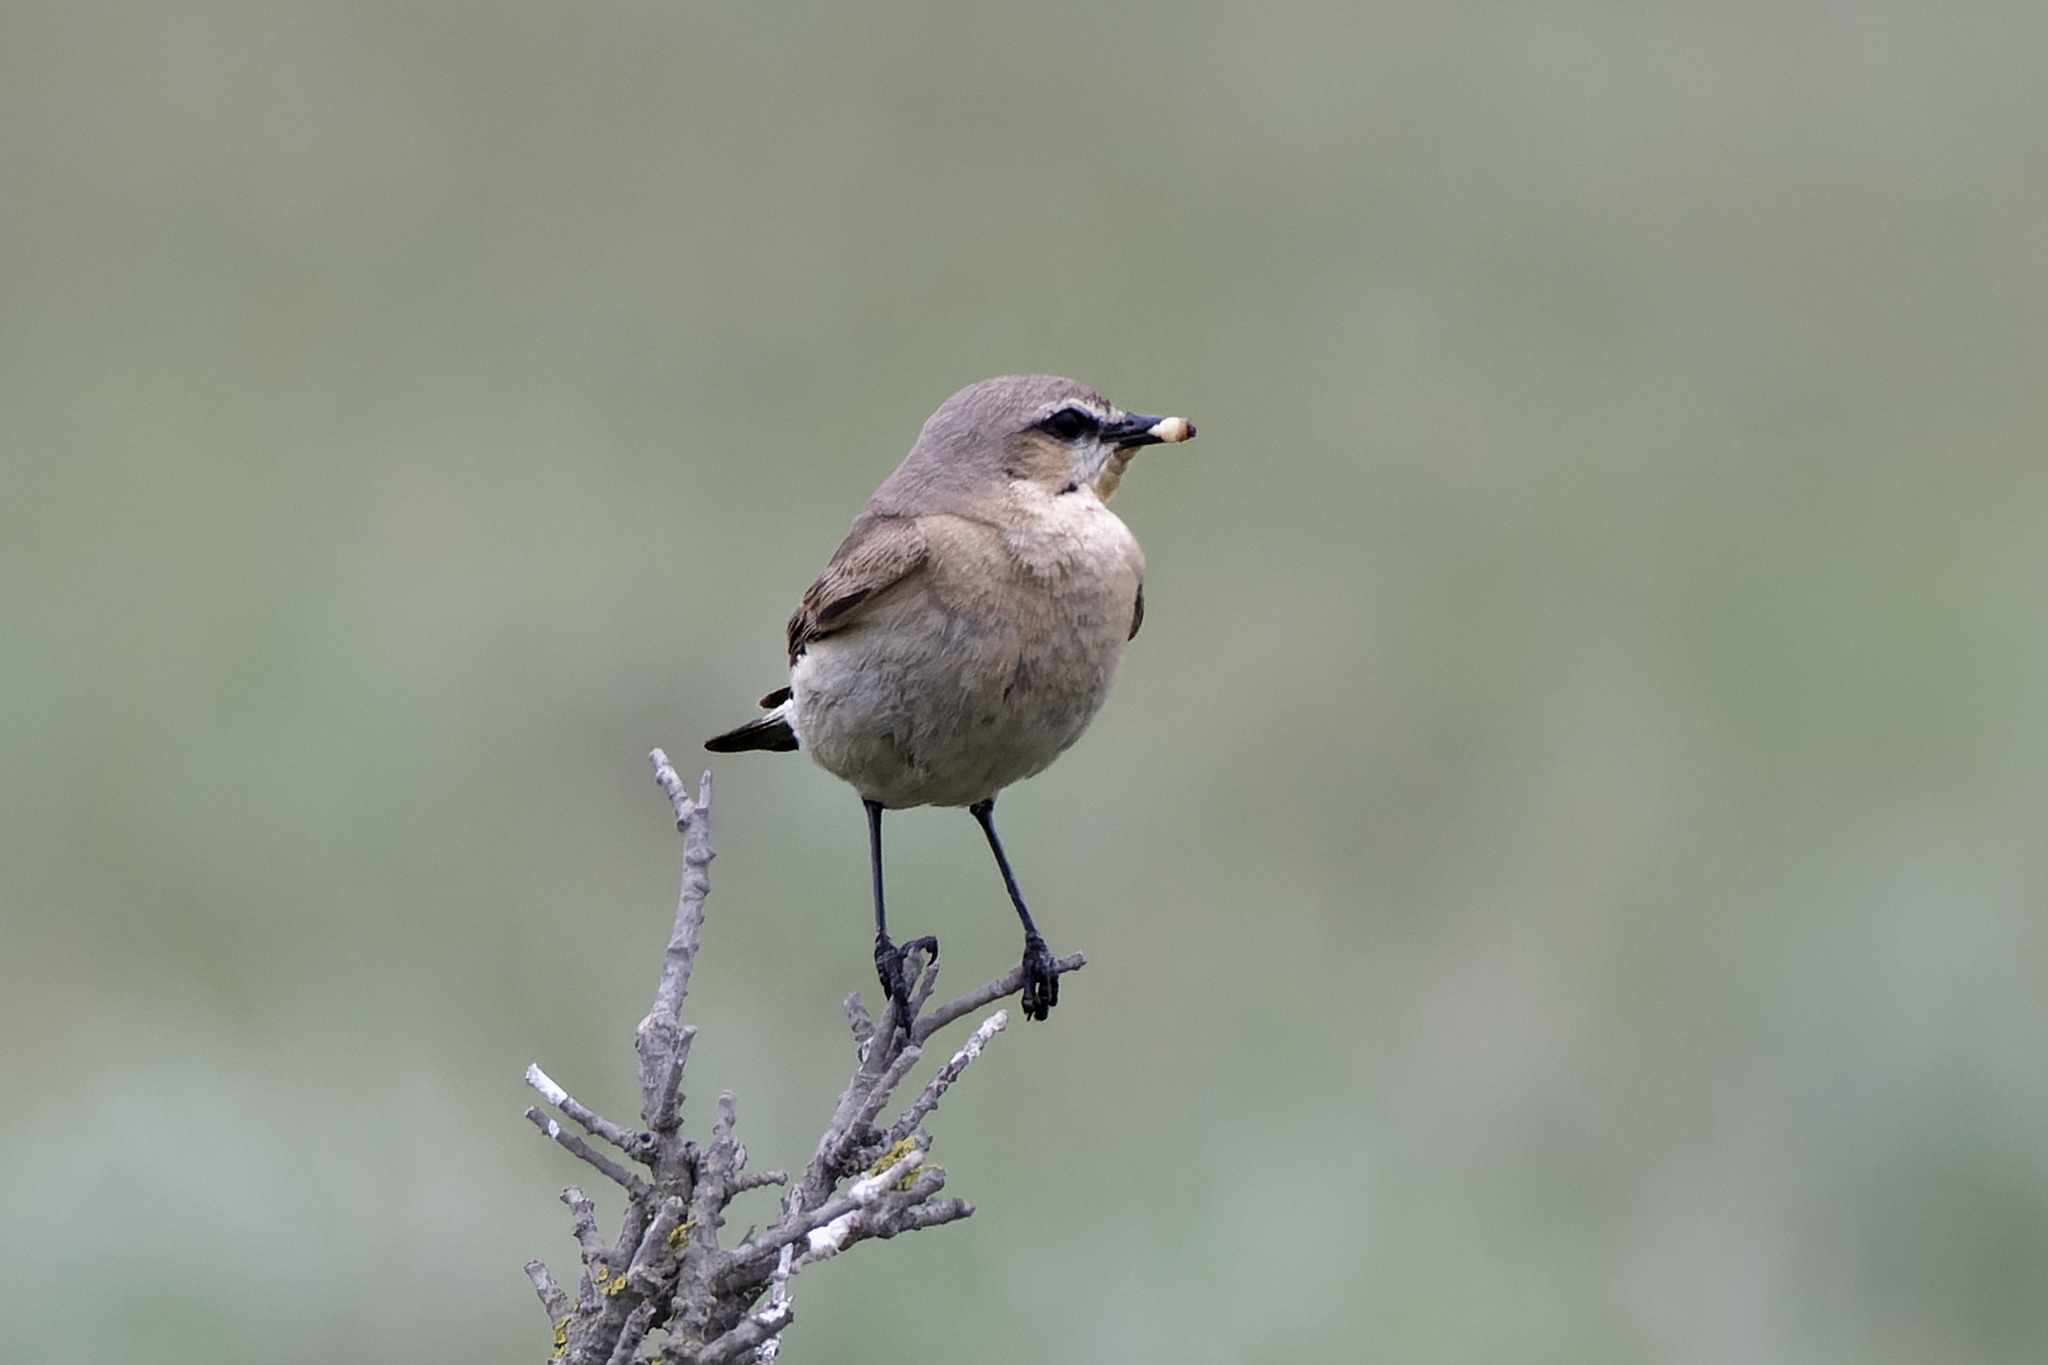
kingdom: Animalia
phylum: Chordata
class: Aves
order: Passeriformes
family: Muscicapidae
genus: Oenanthe
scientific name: Oenanthe isabellina
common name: Isabelline wheatear
